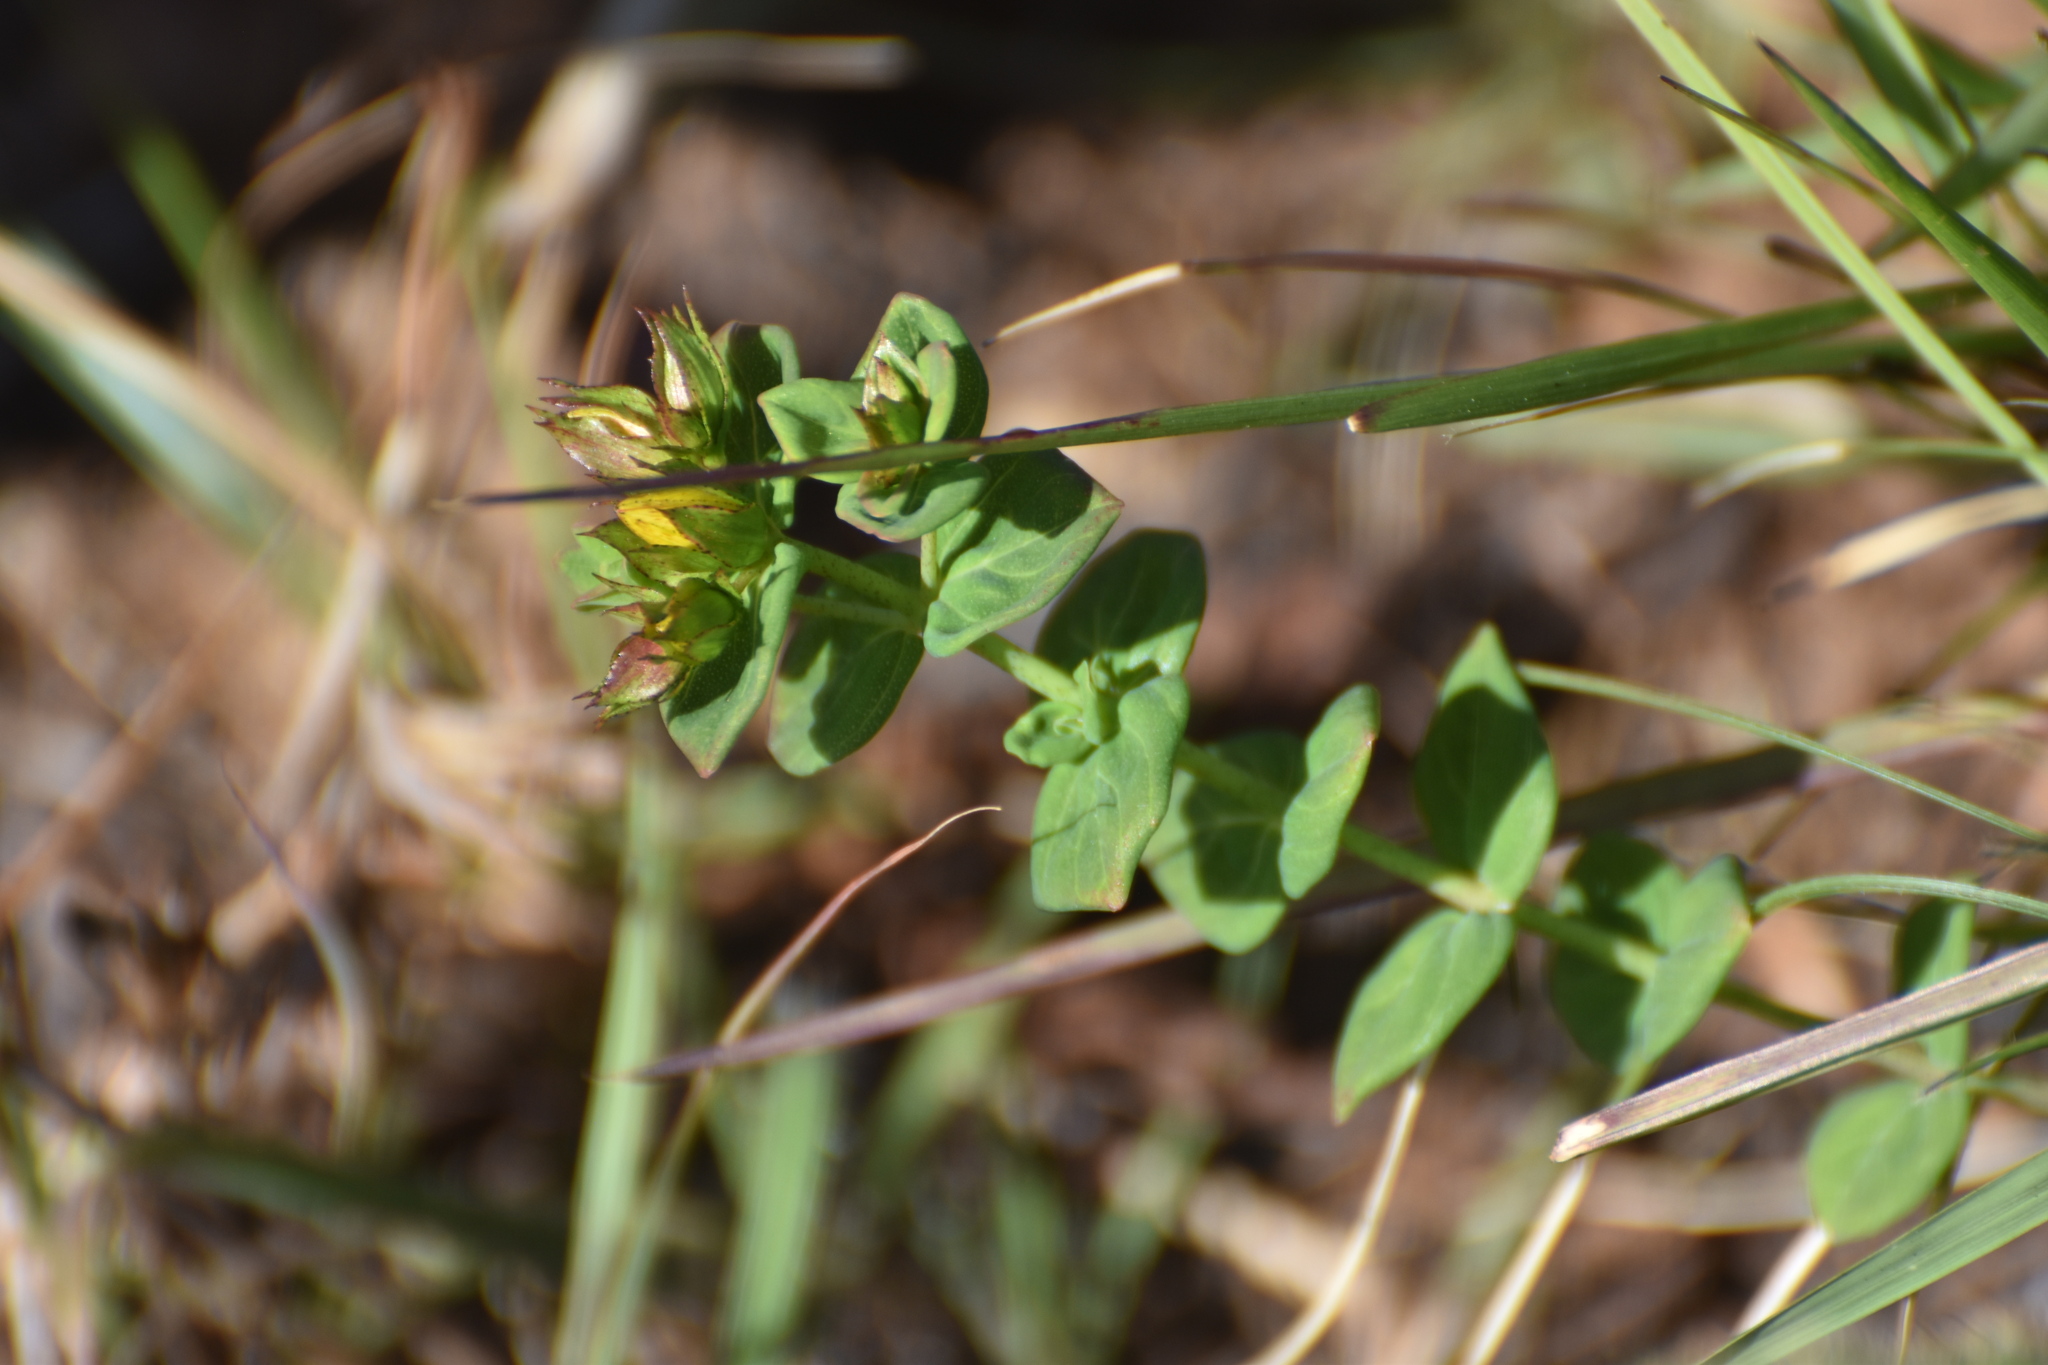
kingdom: Plantae
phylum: Tracheophyta
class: Magnoliopsida
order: Malpighiales
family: Hypericaceae
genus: Hypericum
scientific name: Hypericum aethiopicum
